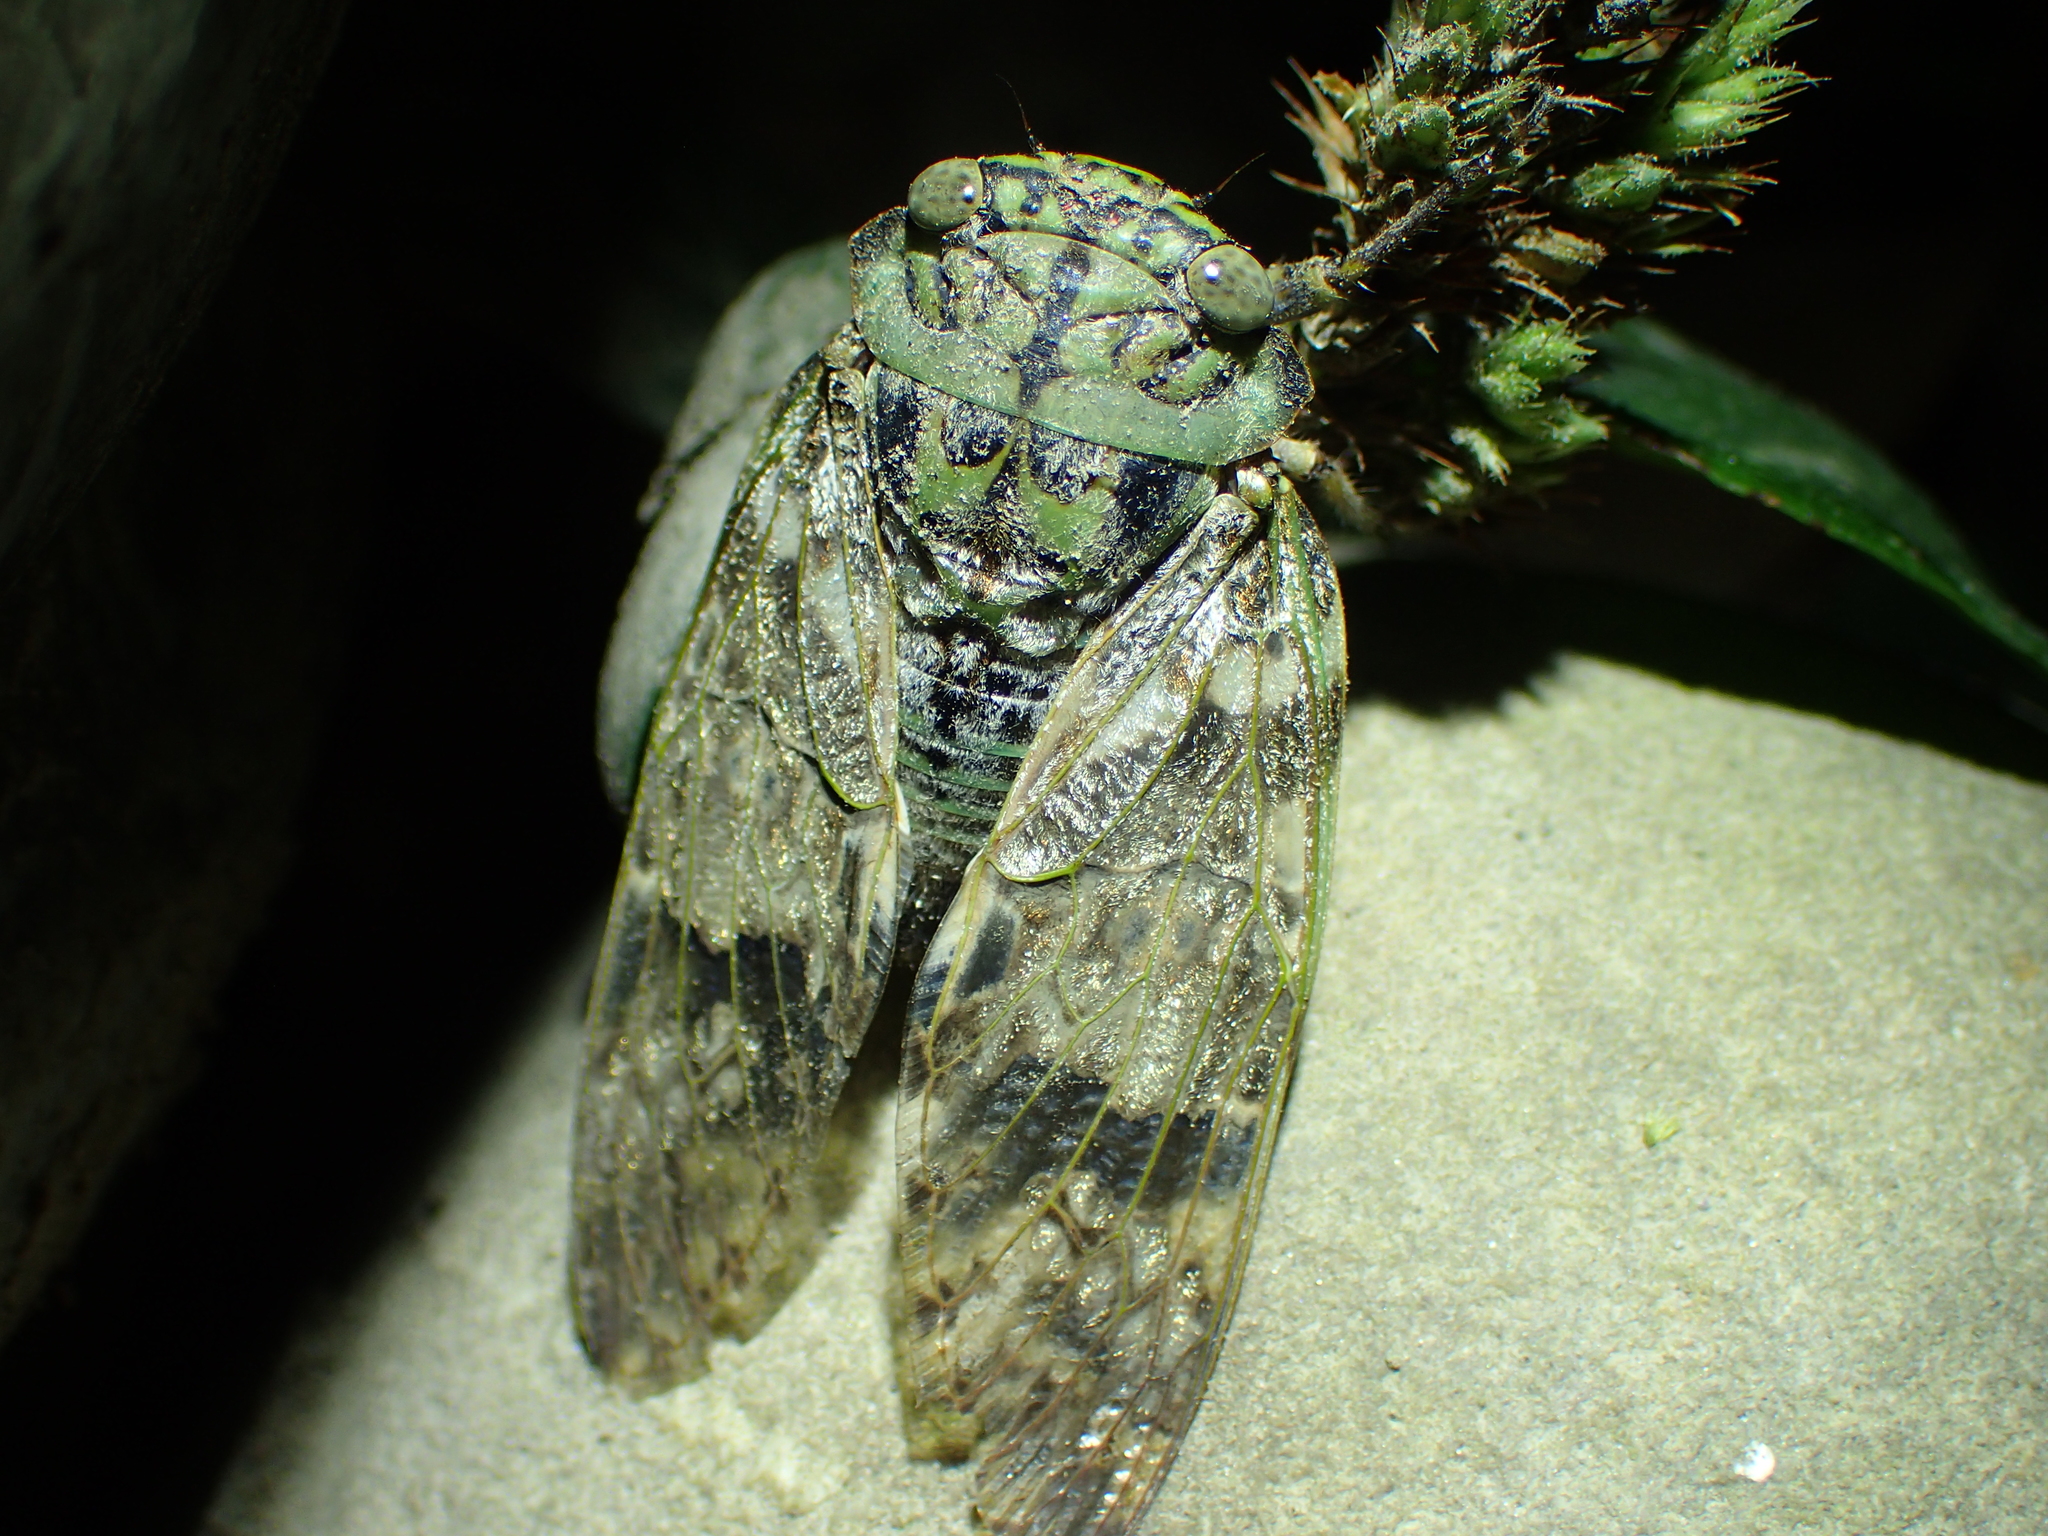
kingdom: Animalia
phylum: Arthropoda
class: Insecta
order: Hemiptera
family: Cicadidae
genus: Platypleura
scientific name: Platypleura takasagona
